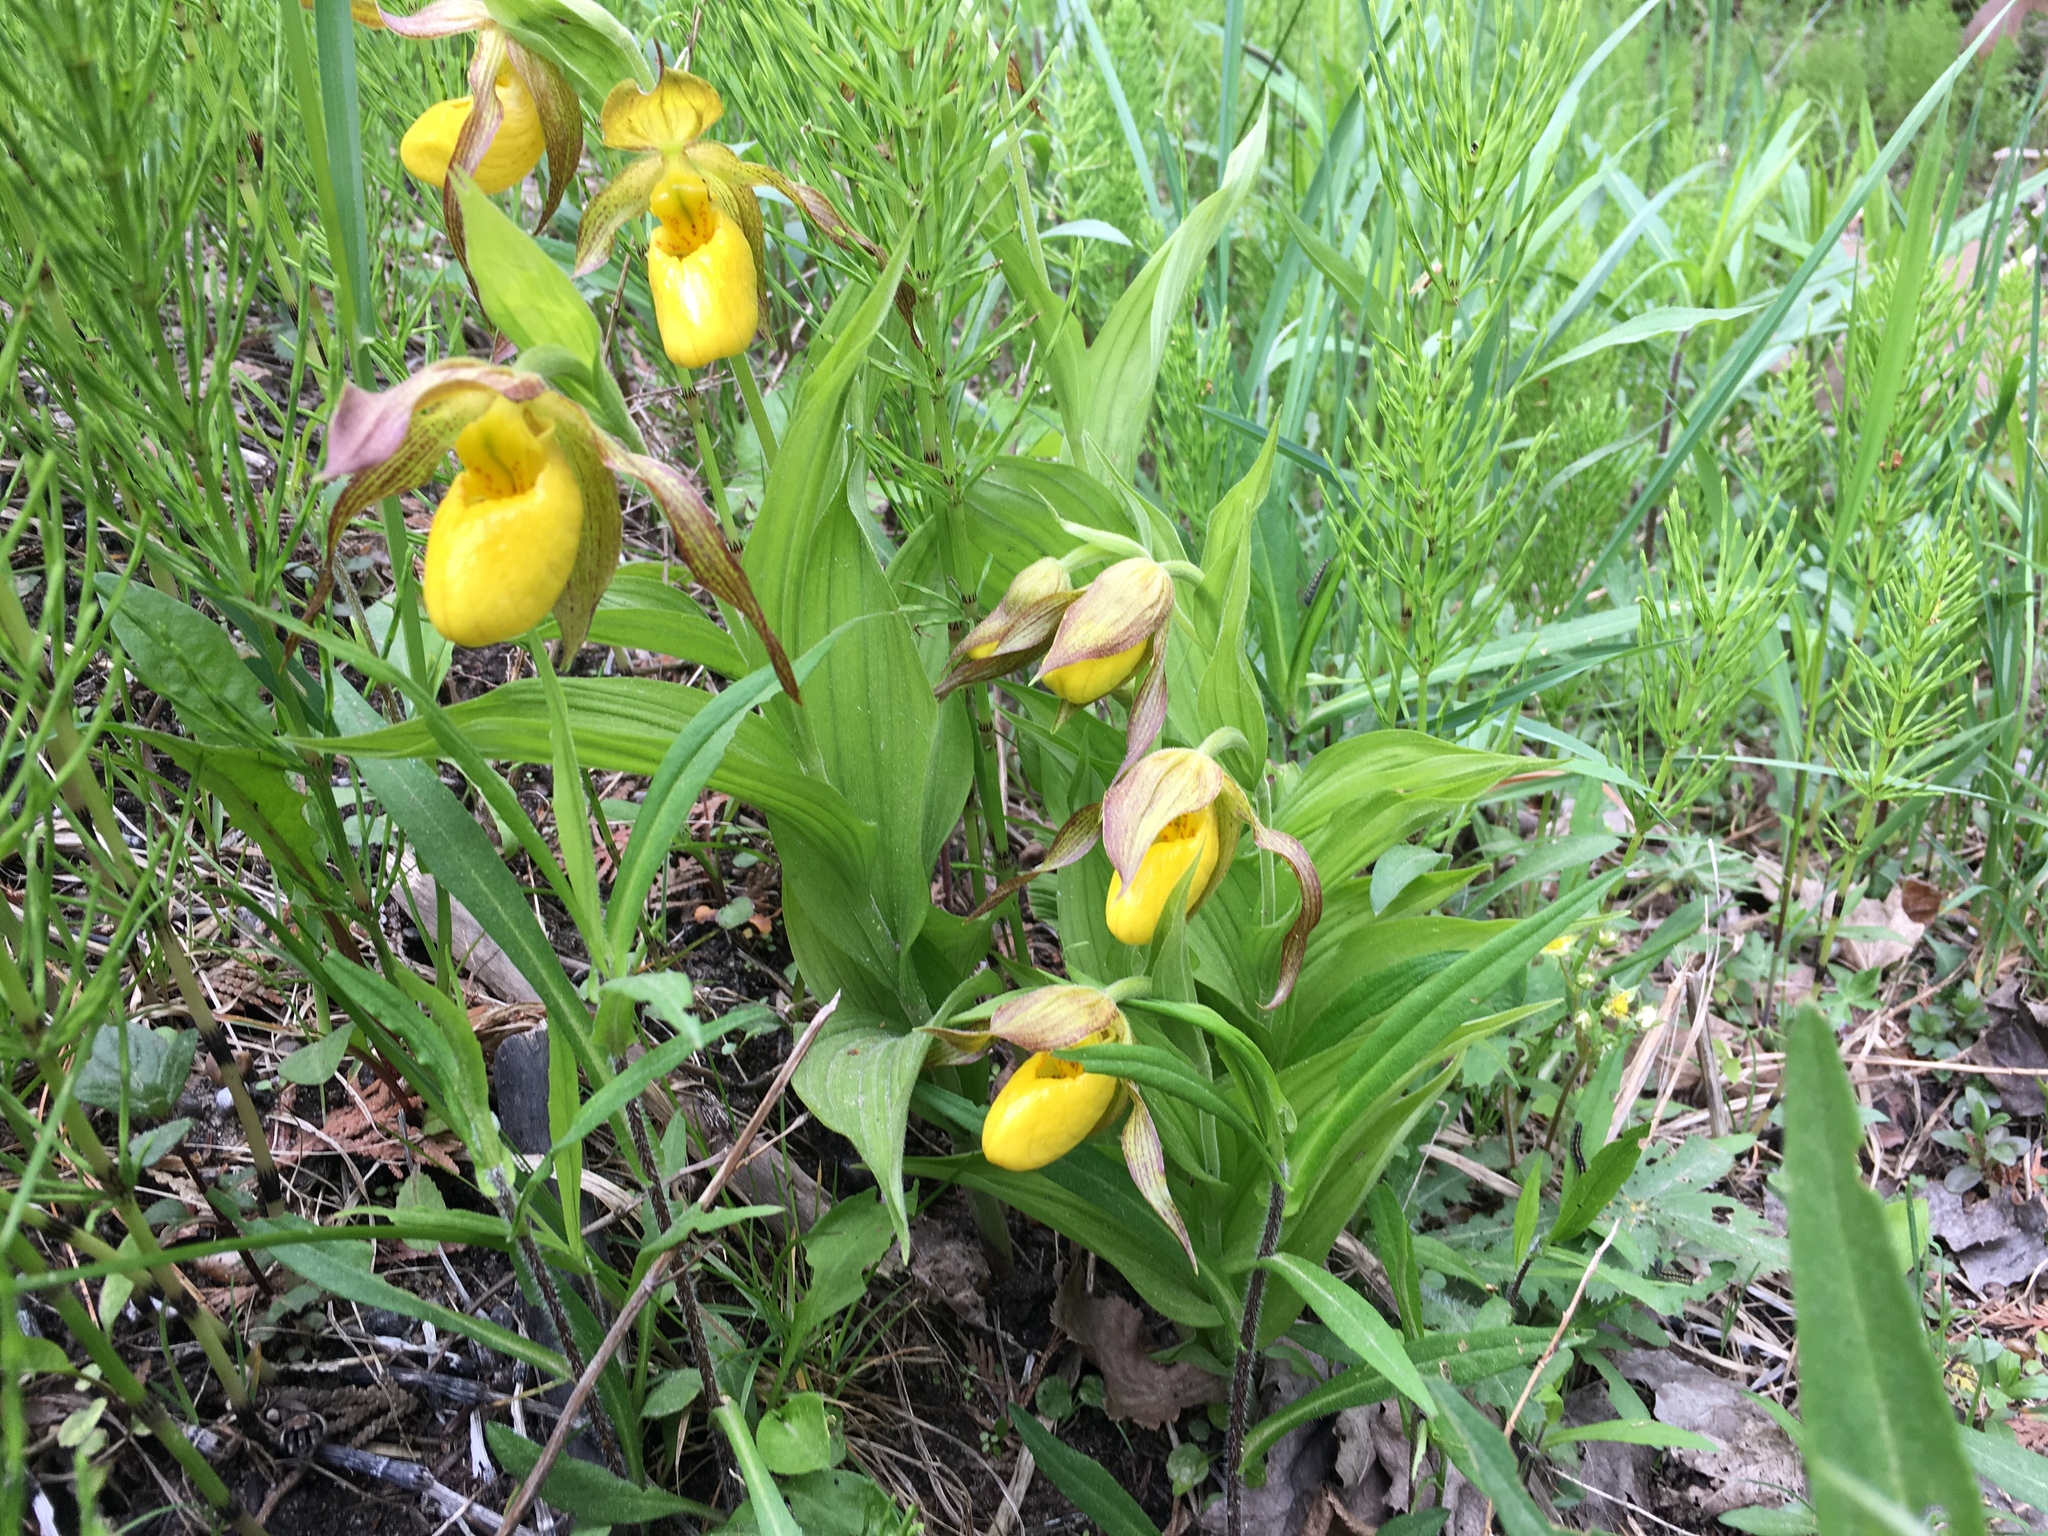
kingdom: Plantae
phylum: Tracheophyta
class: Liliopsida
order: Asparagales
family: Orchidaceae
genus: Cypripedium
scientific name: Cypripedium parviflorum
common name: American yellow lady's-slipper
